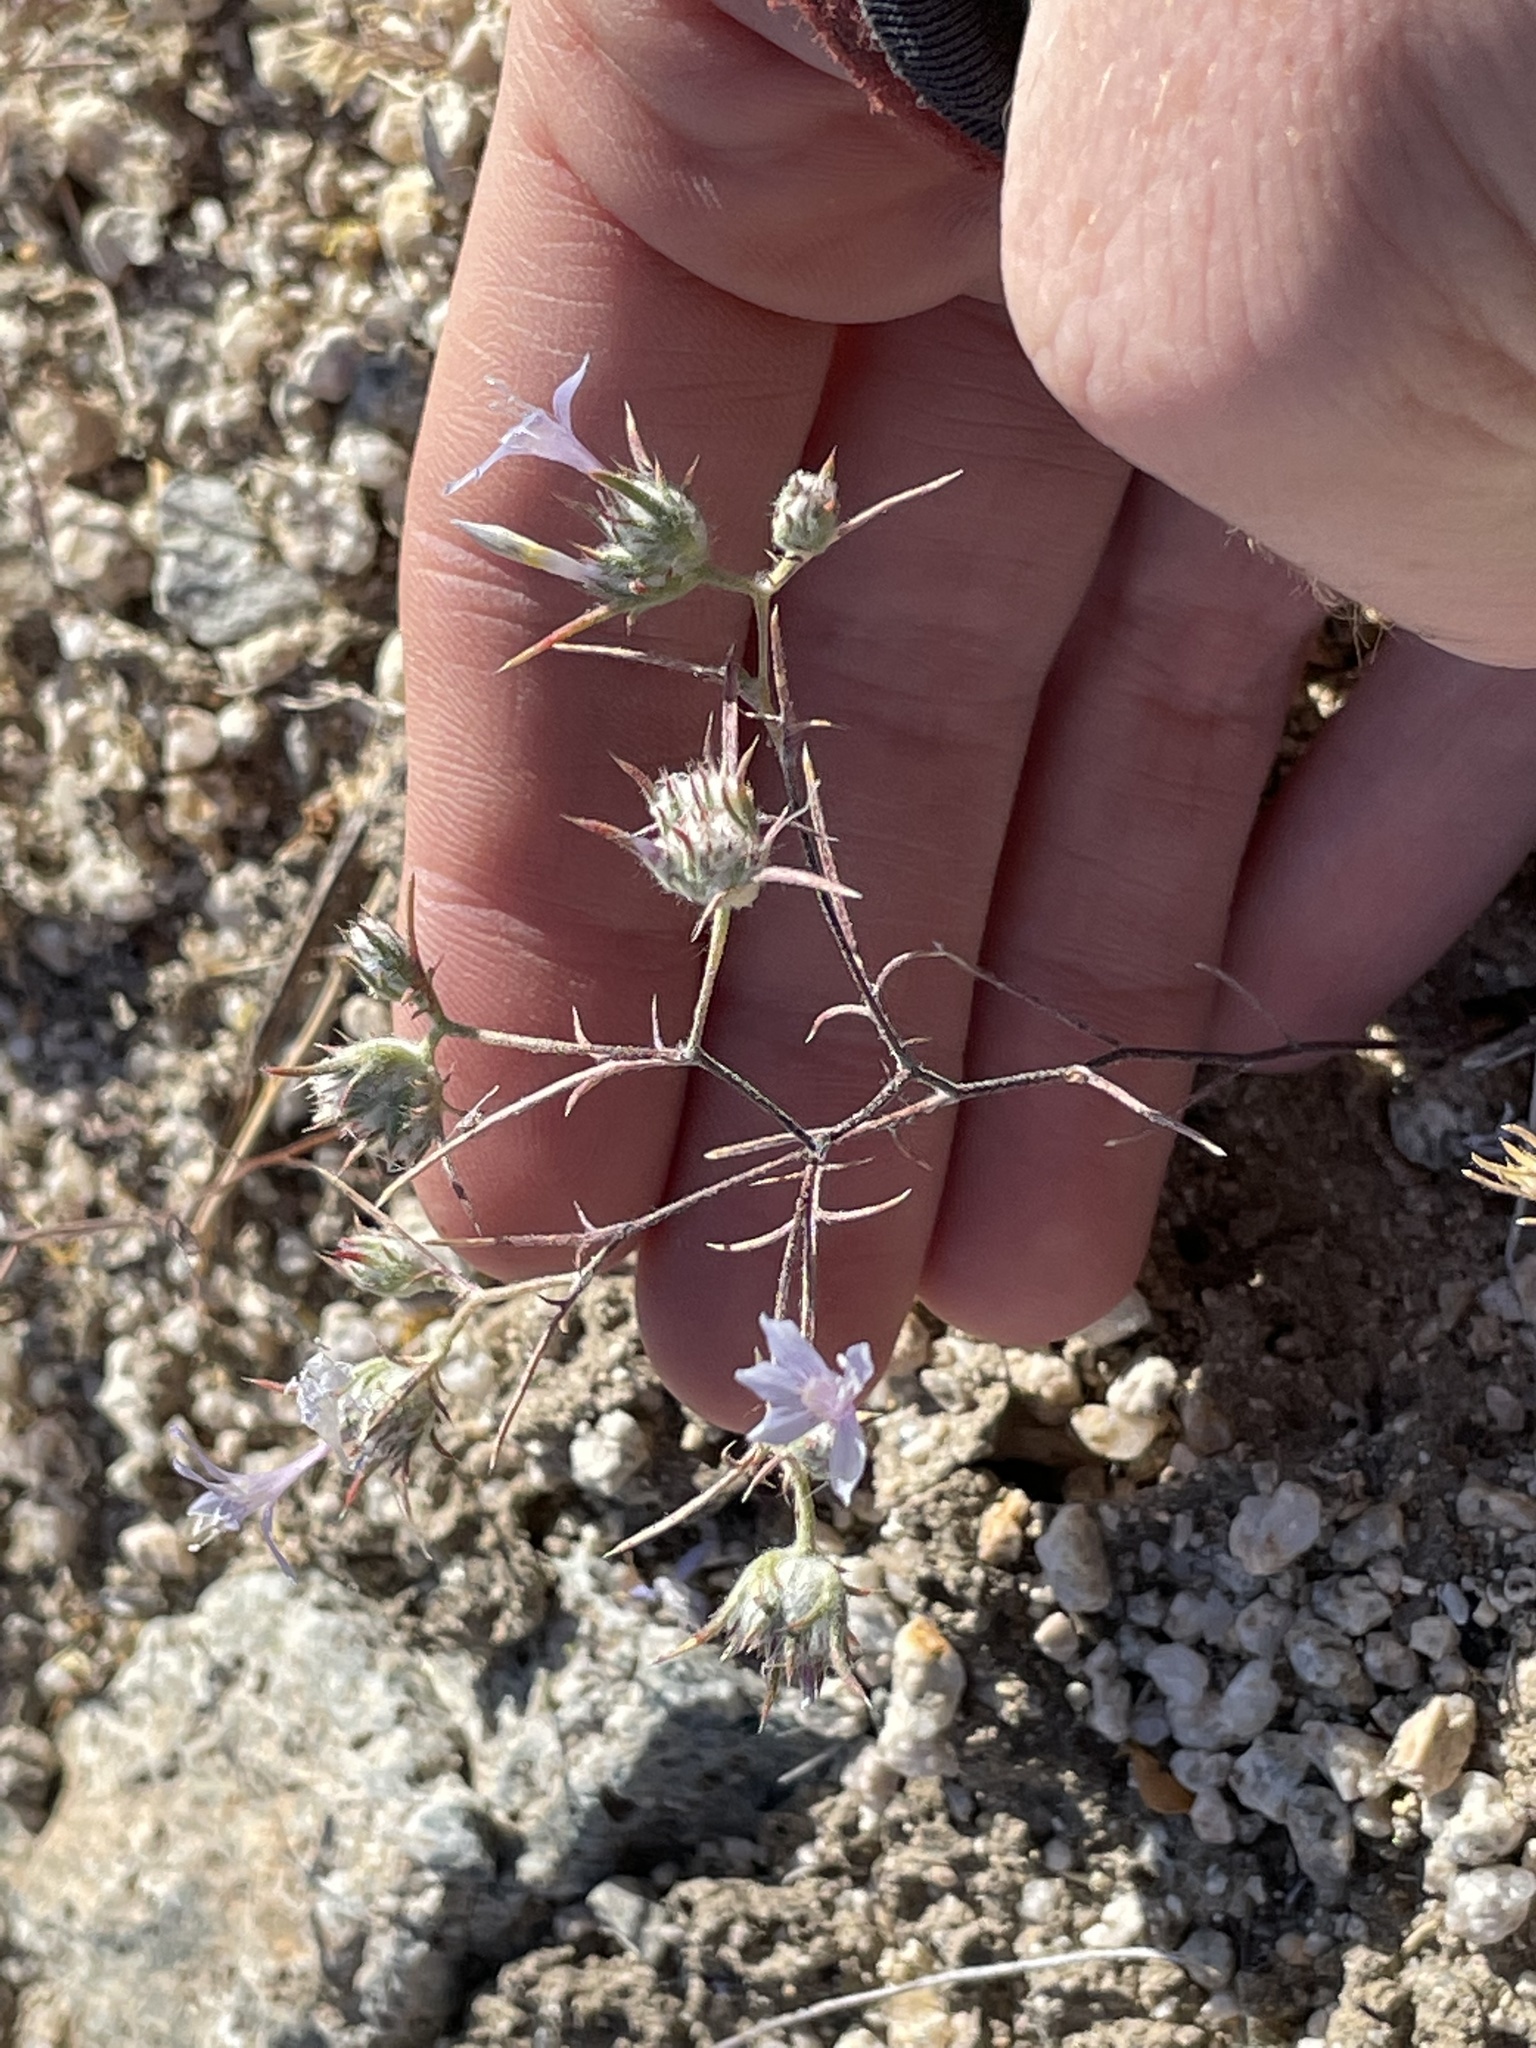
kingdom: Plantae
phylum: Tracheophyta
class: Magnoliopsida
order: Ericales
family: Polemoniaceae
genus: Eriastrum
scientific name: Eriastrum eremicum
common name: Desert eriastrum
